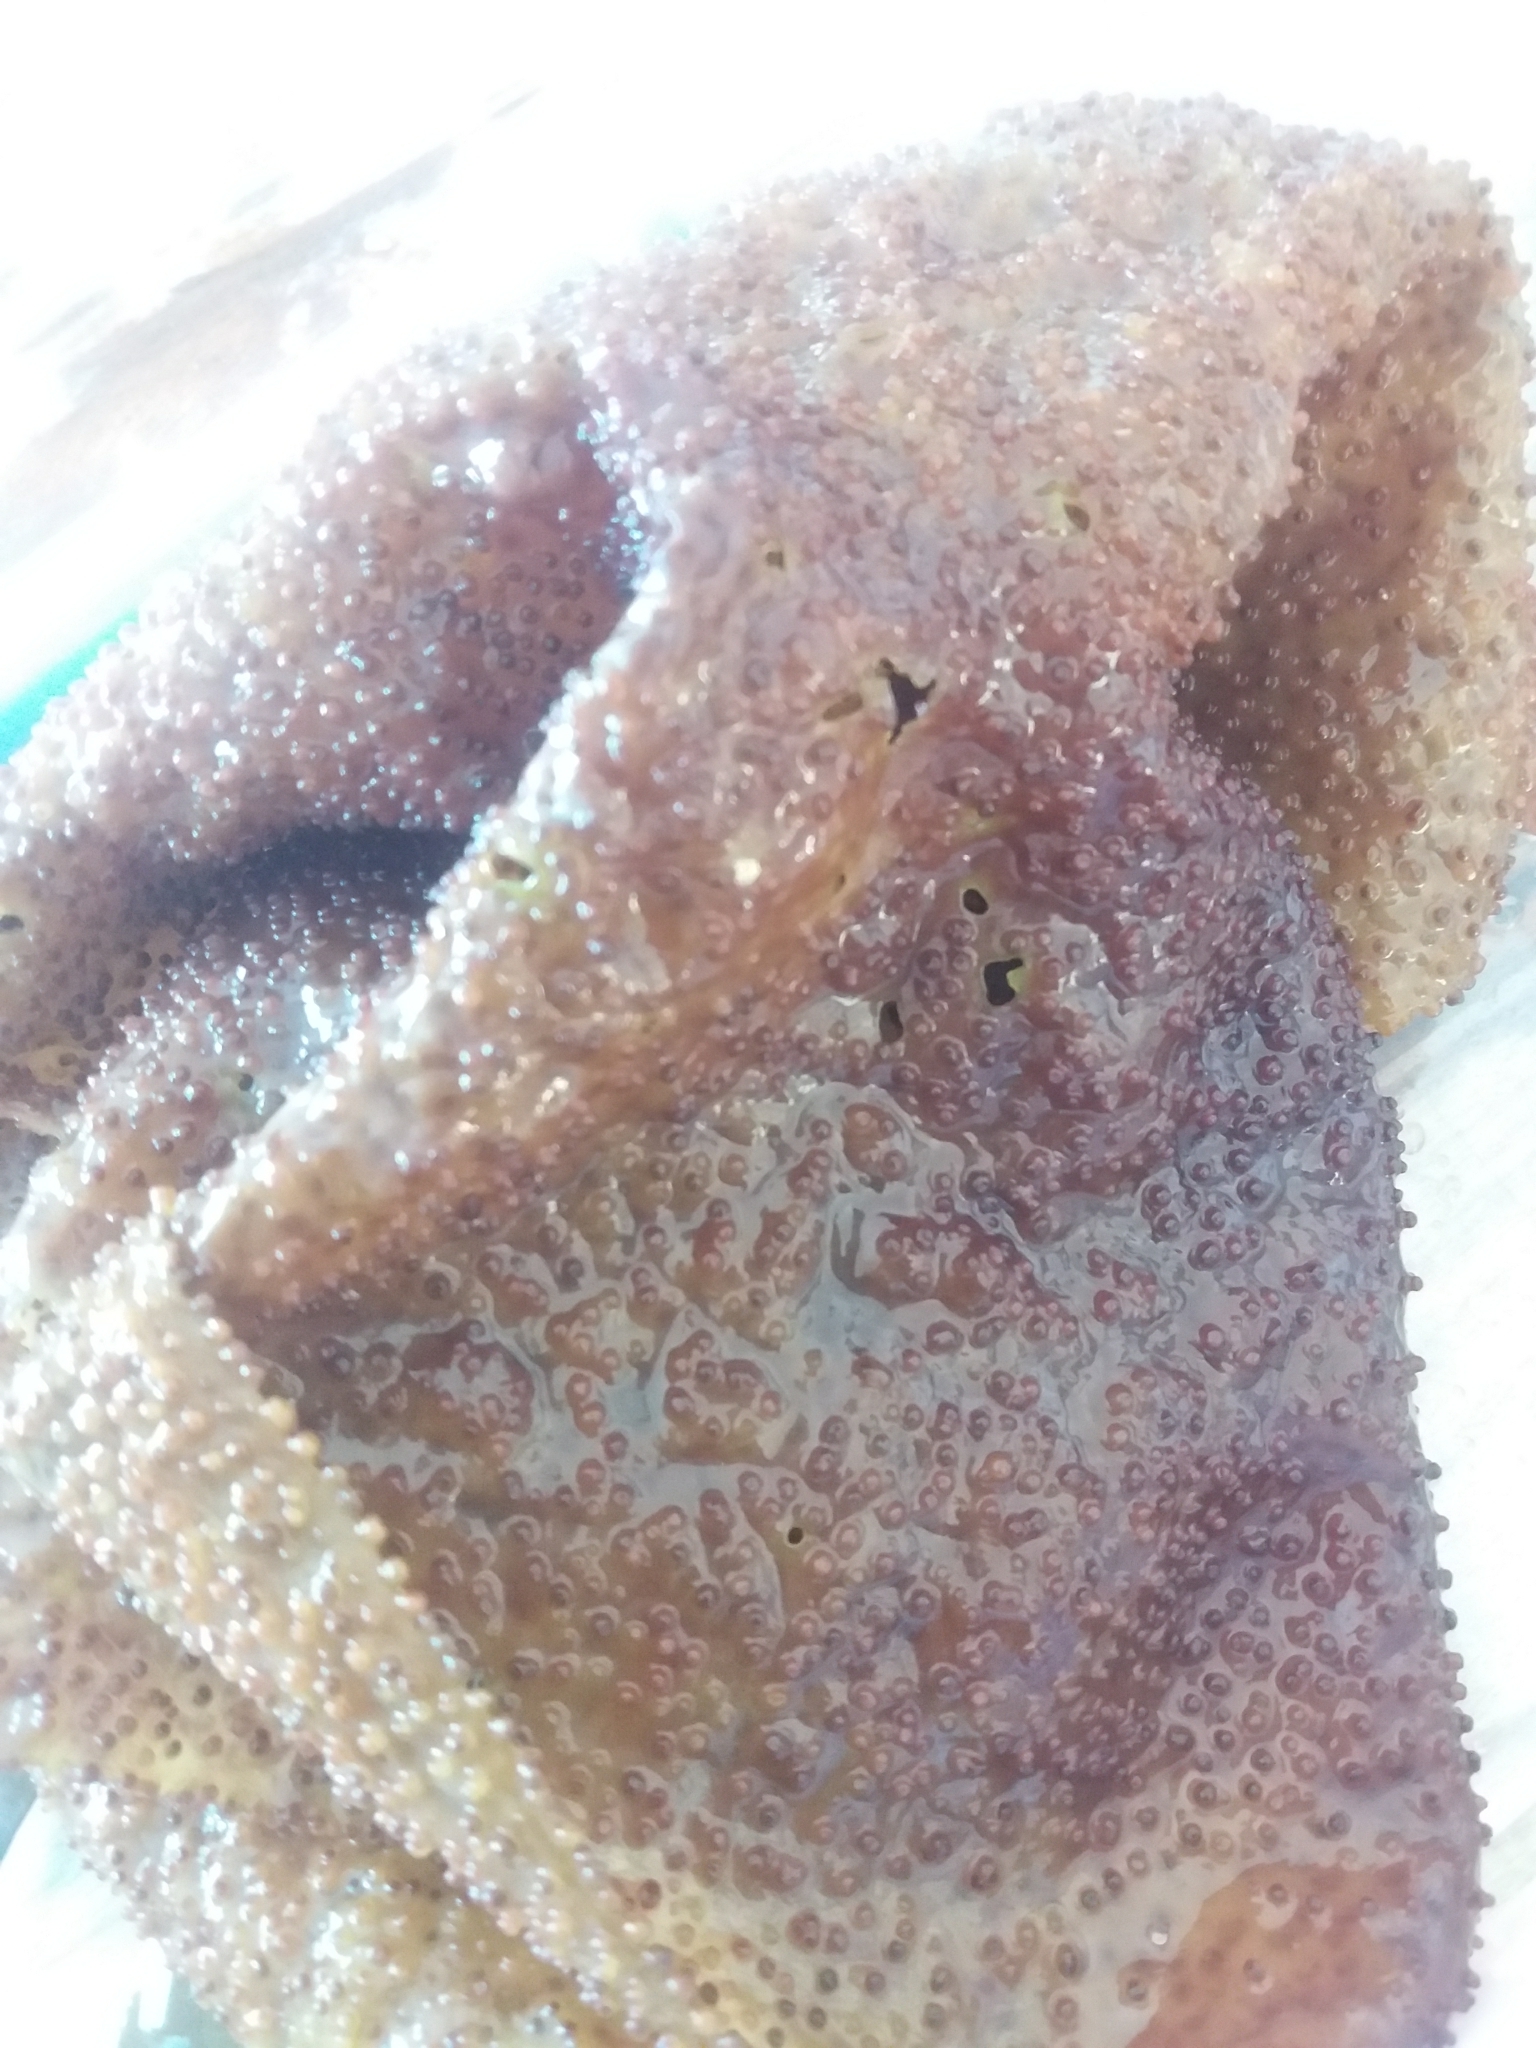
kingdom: Plantae
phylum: Rhodophyta
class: Florideophyceae
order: Gigartinales
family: Gigartinaceae
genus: Sarcothalia
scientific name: Sarcothalia circumcincta
